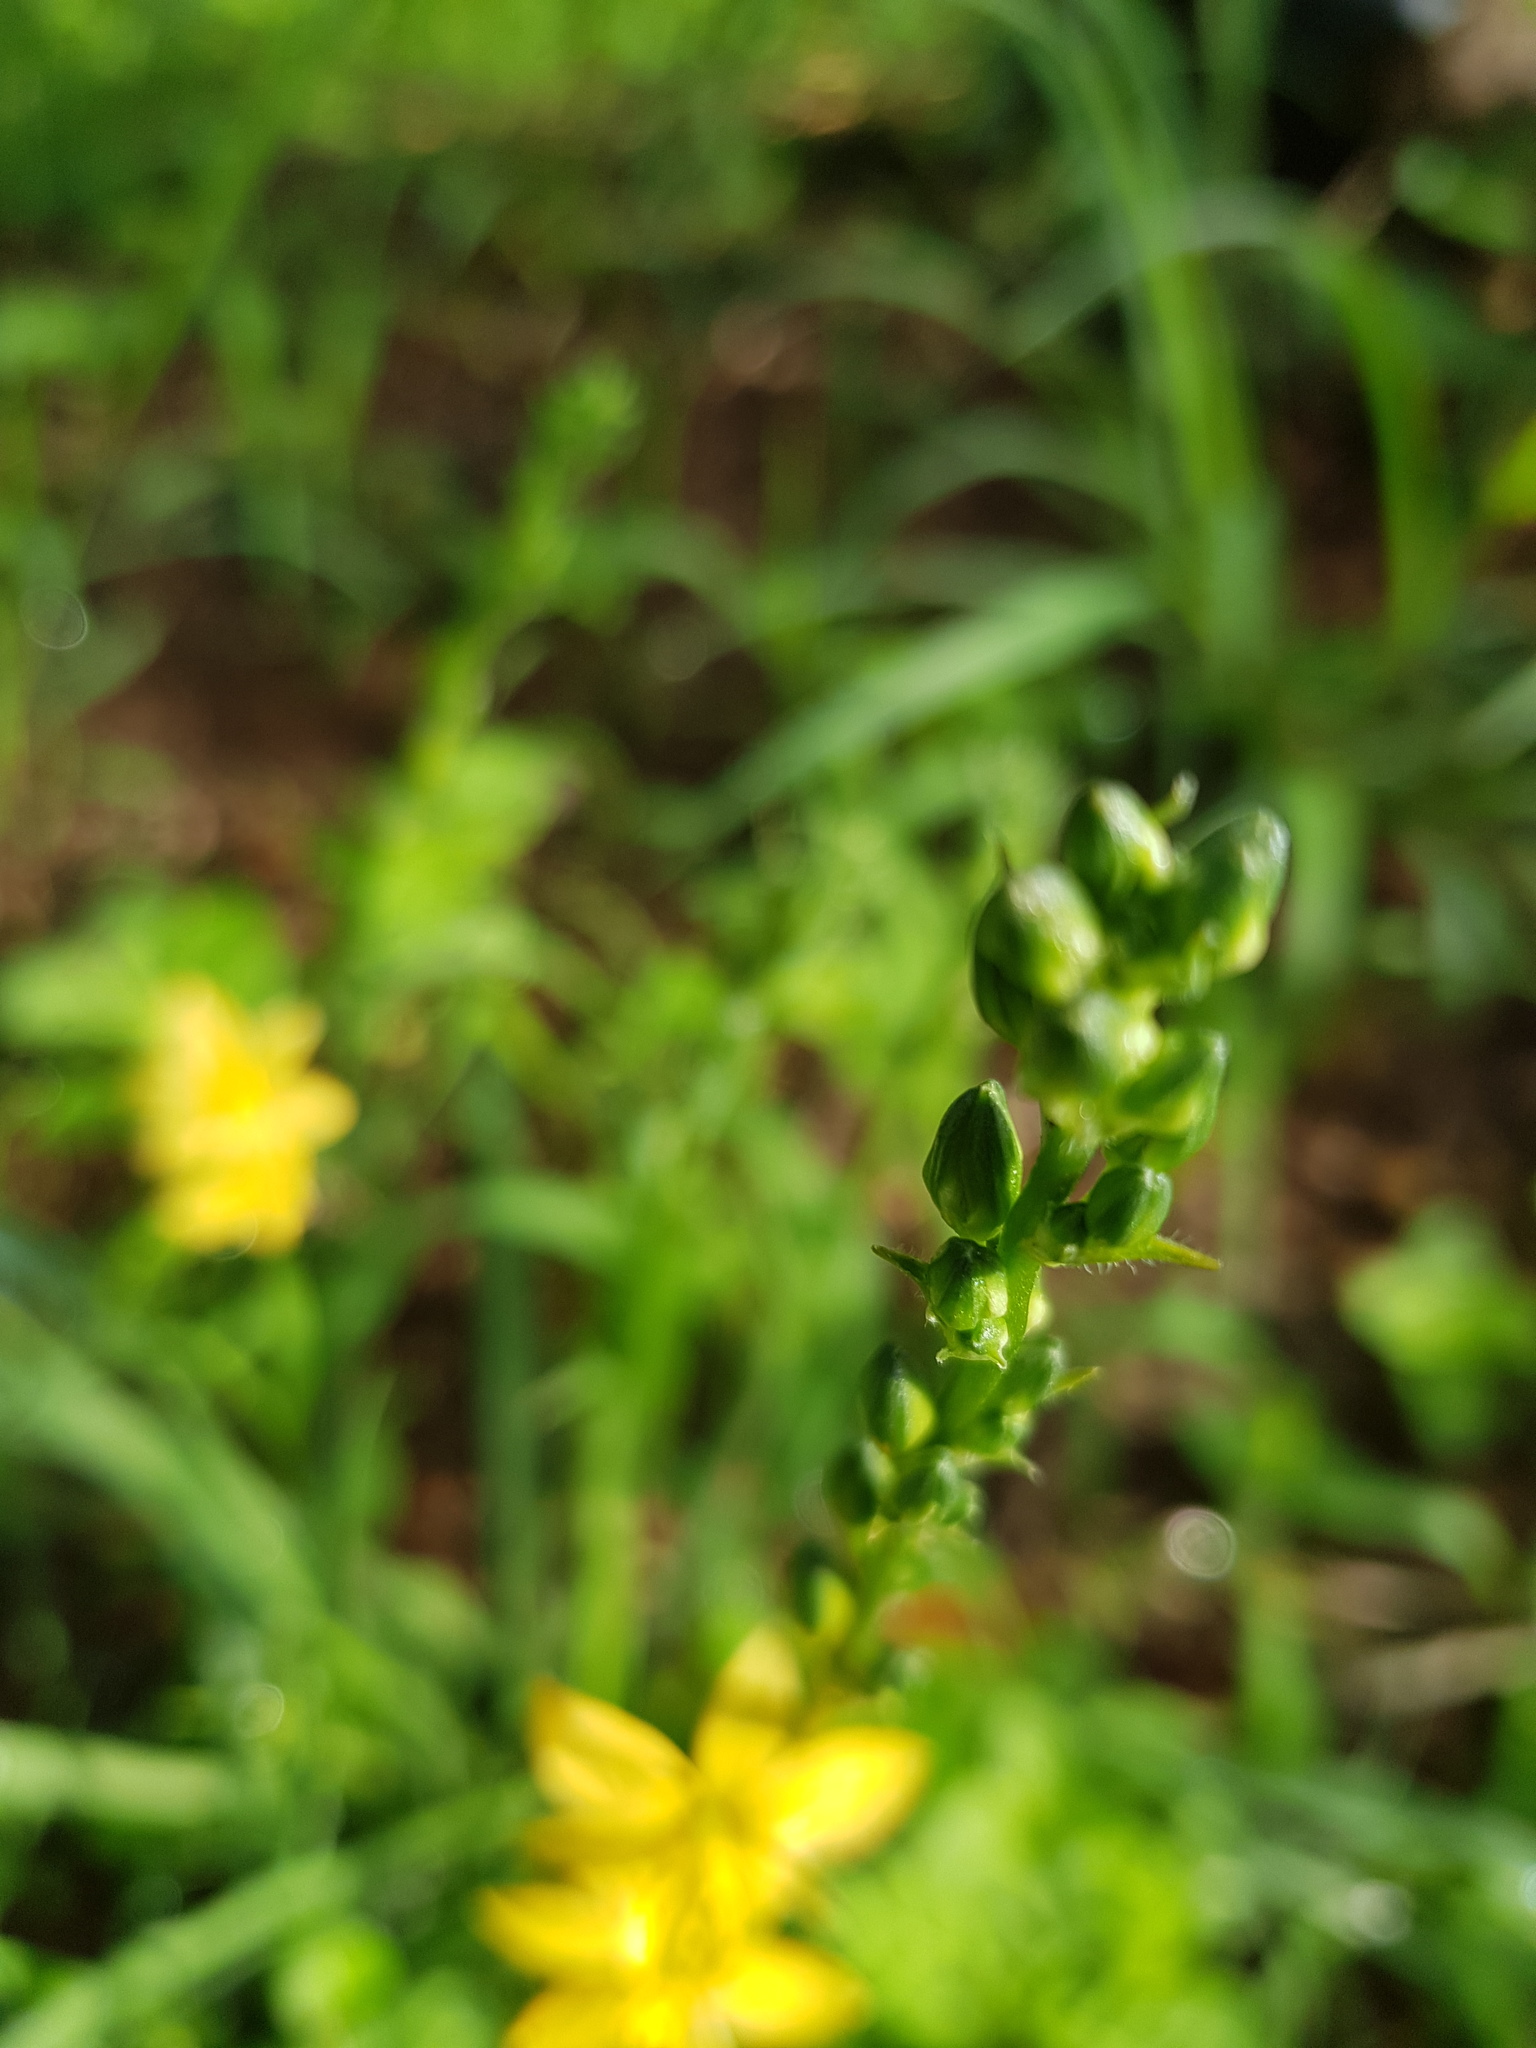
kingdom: Plantae
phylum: Tracheophyta
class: Liliopsida
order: Asparagales
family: Asparagaceae
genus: Echeandia
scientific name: Echeandia vestita
